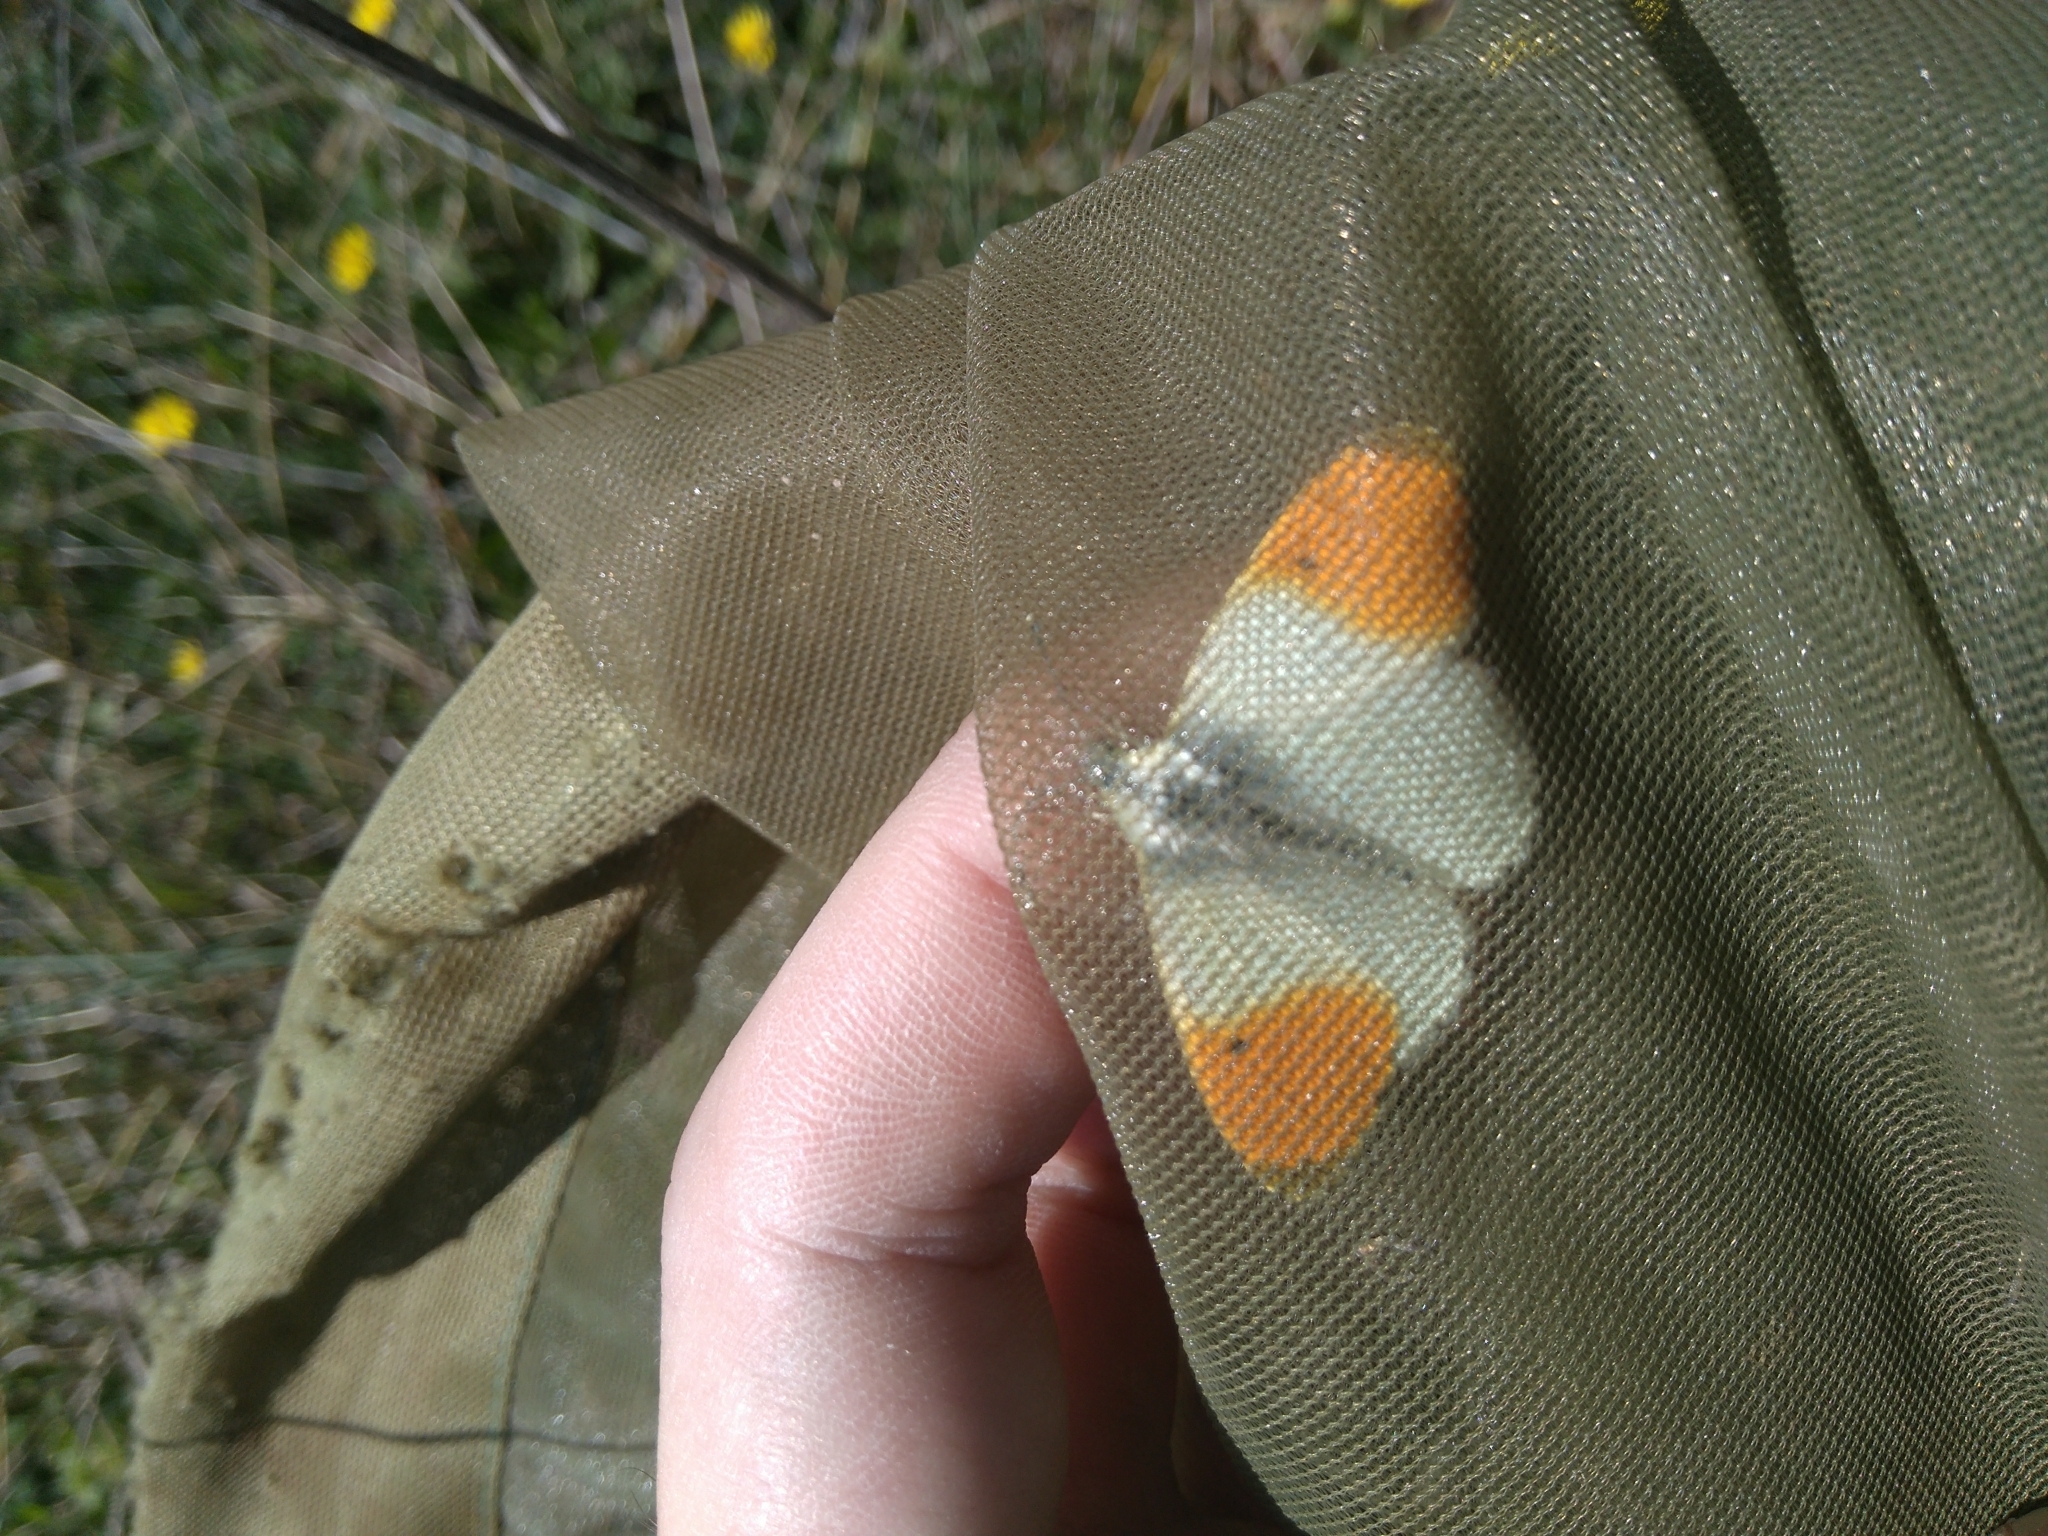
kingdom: Animalia
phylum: Arthropoda
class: Insecta
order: Lepidoptera
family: Pieridae
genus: Anthocharis
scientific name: Anthocharis cardamines
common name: Orange-tip
